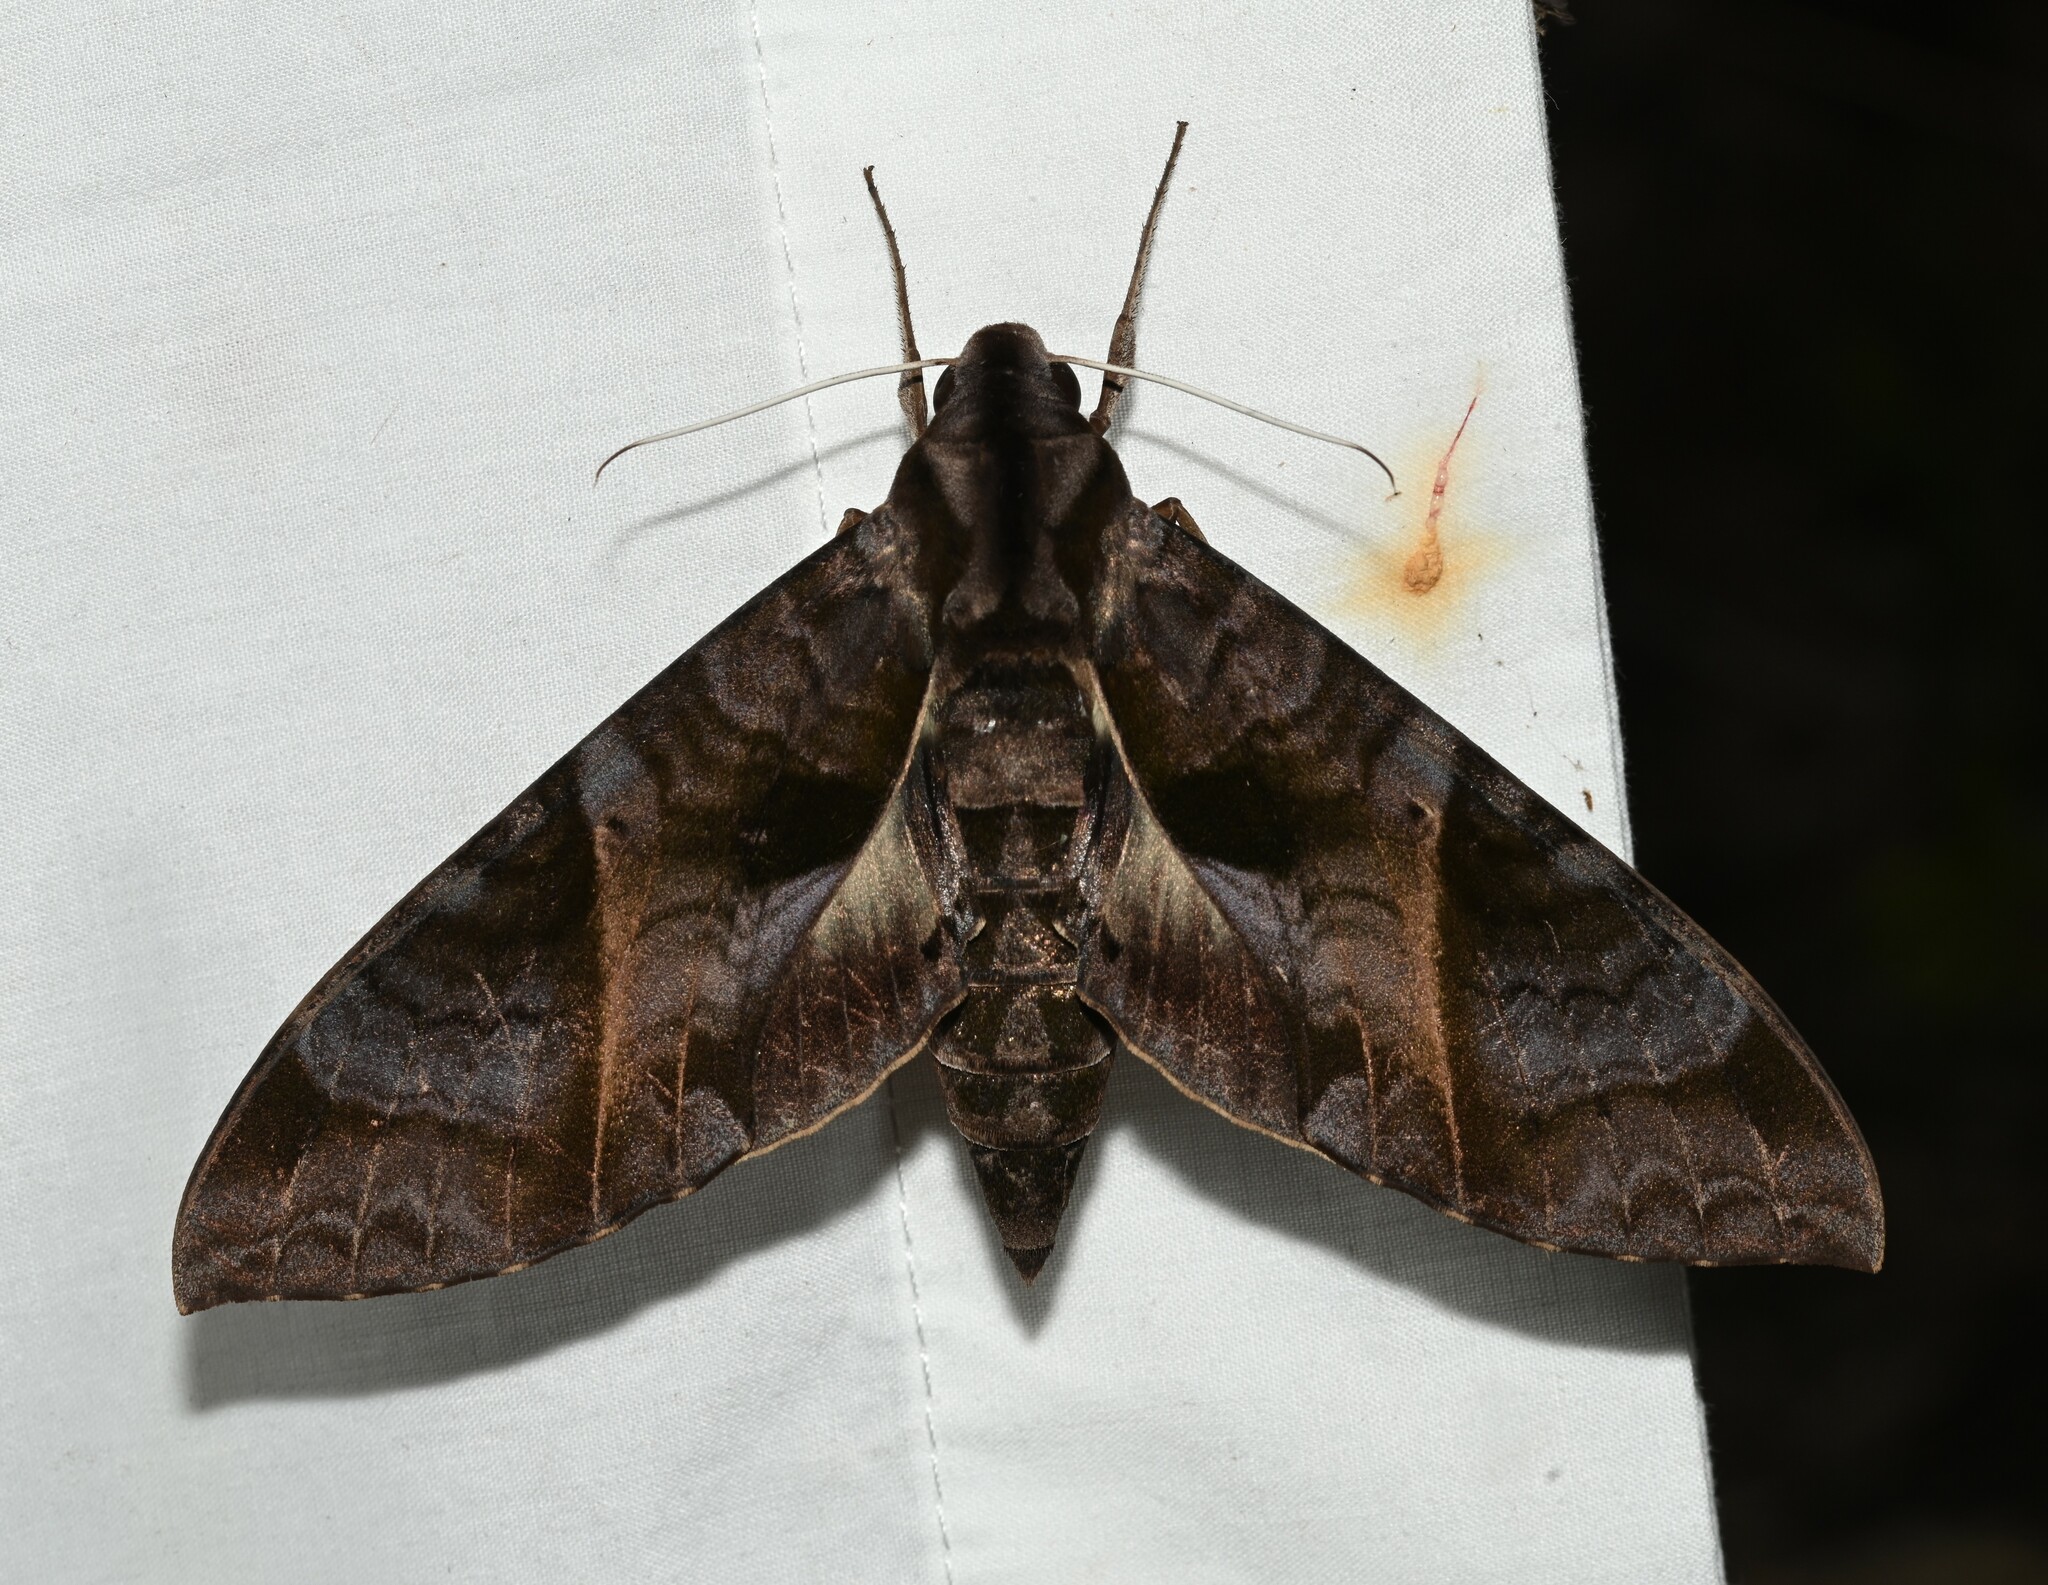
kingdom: Animalia
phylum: Arthropoda
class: Insecta
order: Lepidoptera
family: Sphingidae
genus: Eumorpha
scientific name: Eumorpha triangulum
